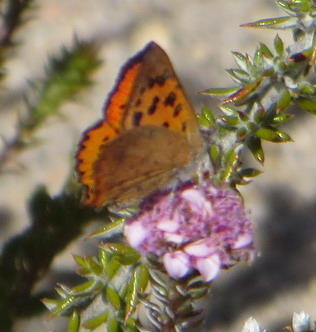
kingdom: Animalia
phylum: Arthropoda
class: Insecta
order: Lepidoptera
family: Lycaenidae
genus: Zeritis
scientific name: Zeritis chrysaor
